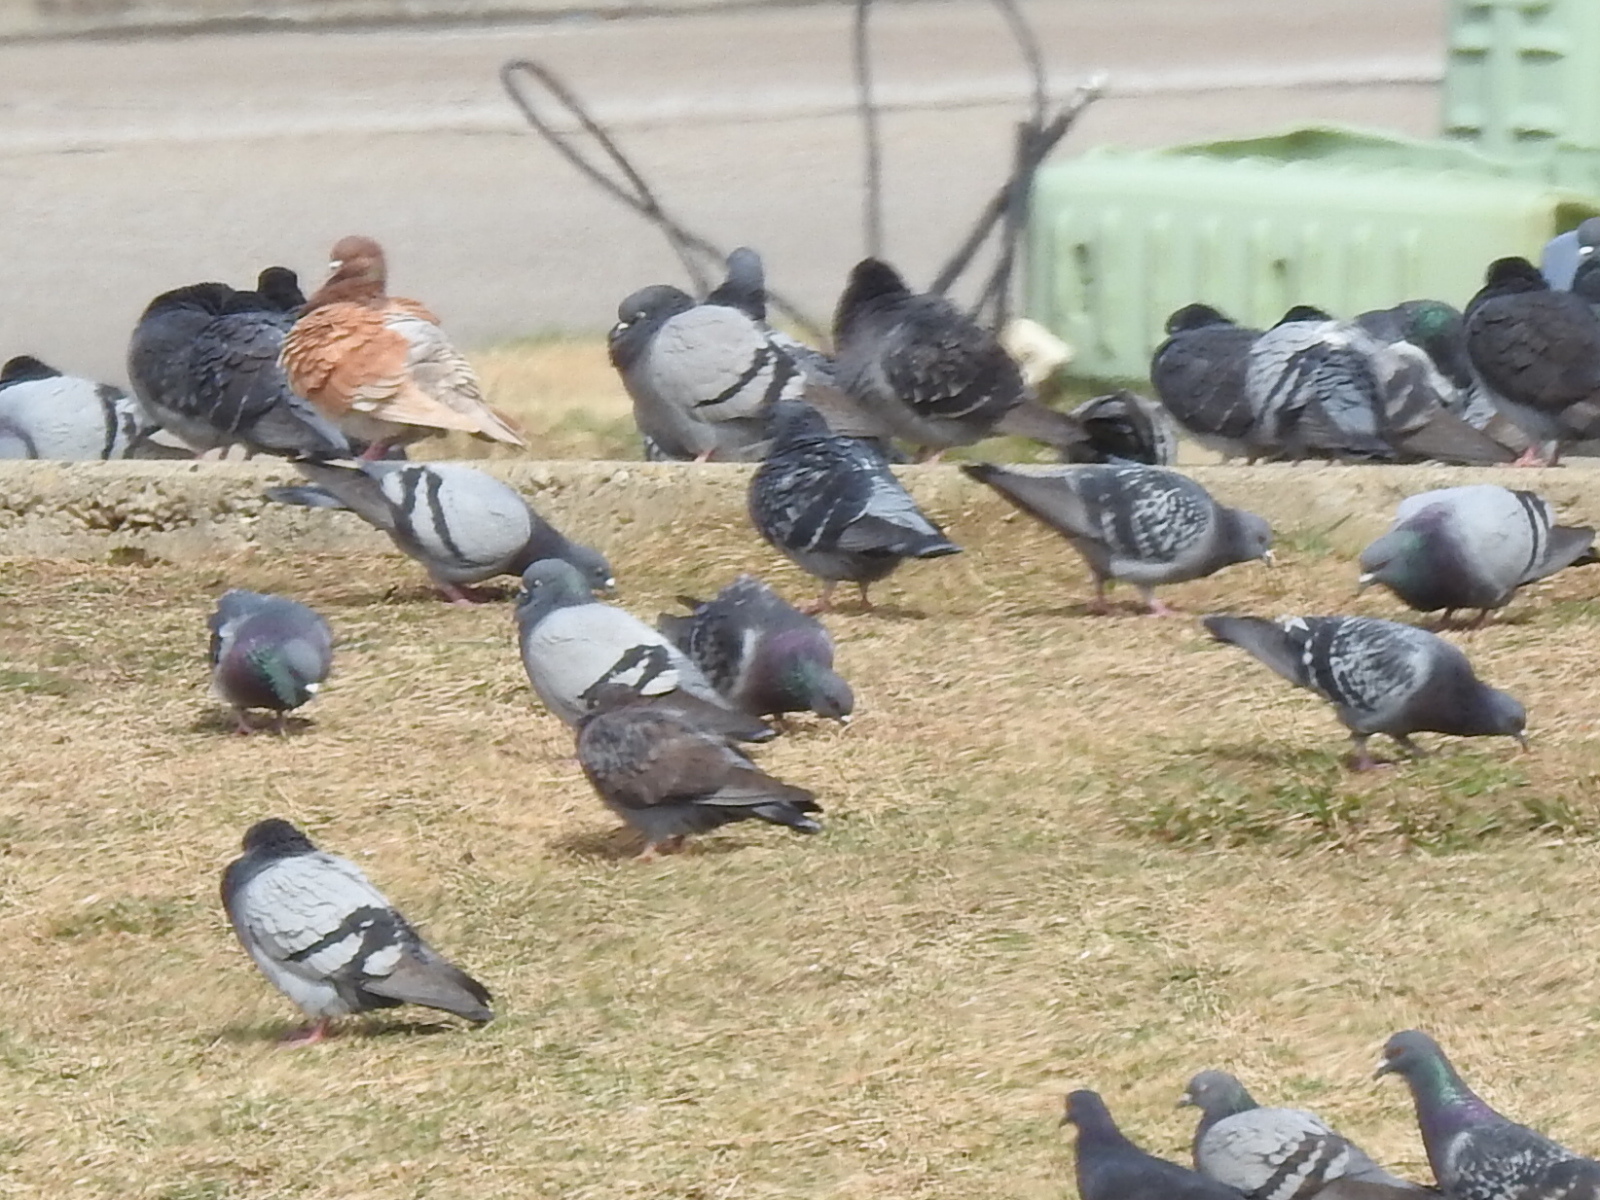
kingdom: Animalia
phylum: Chordata
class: Aves
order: Columbiformes
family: Columbidae
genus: Columba
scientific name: Columba livia
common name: Rock pigeon
